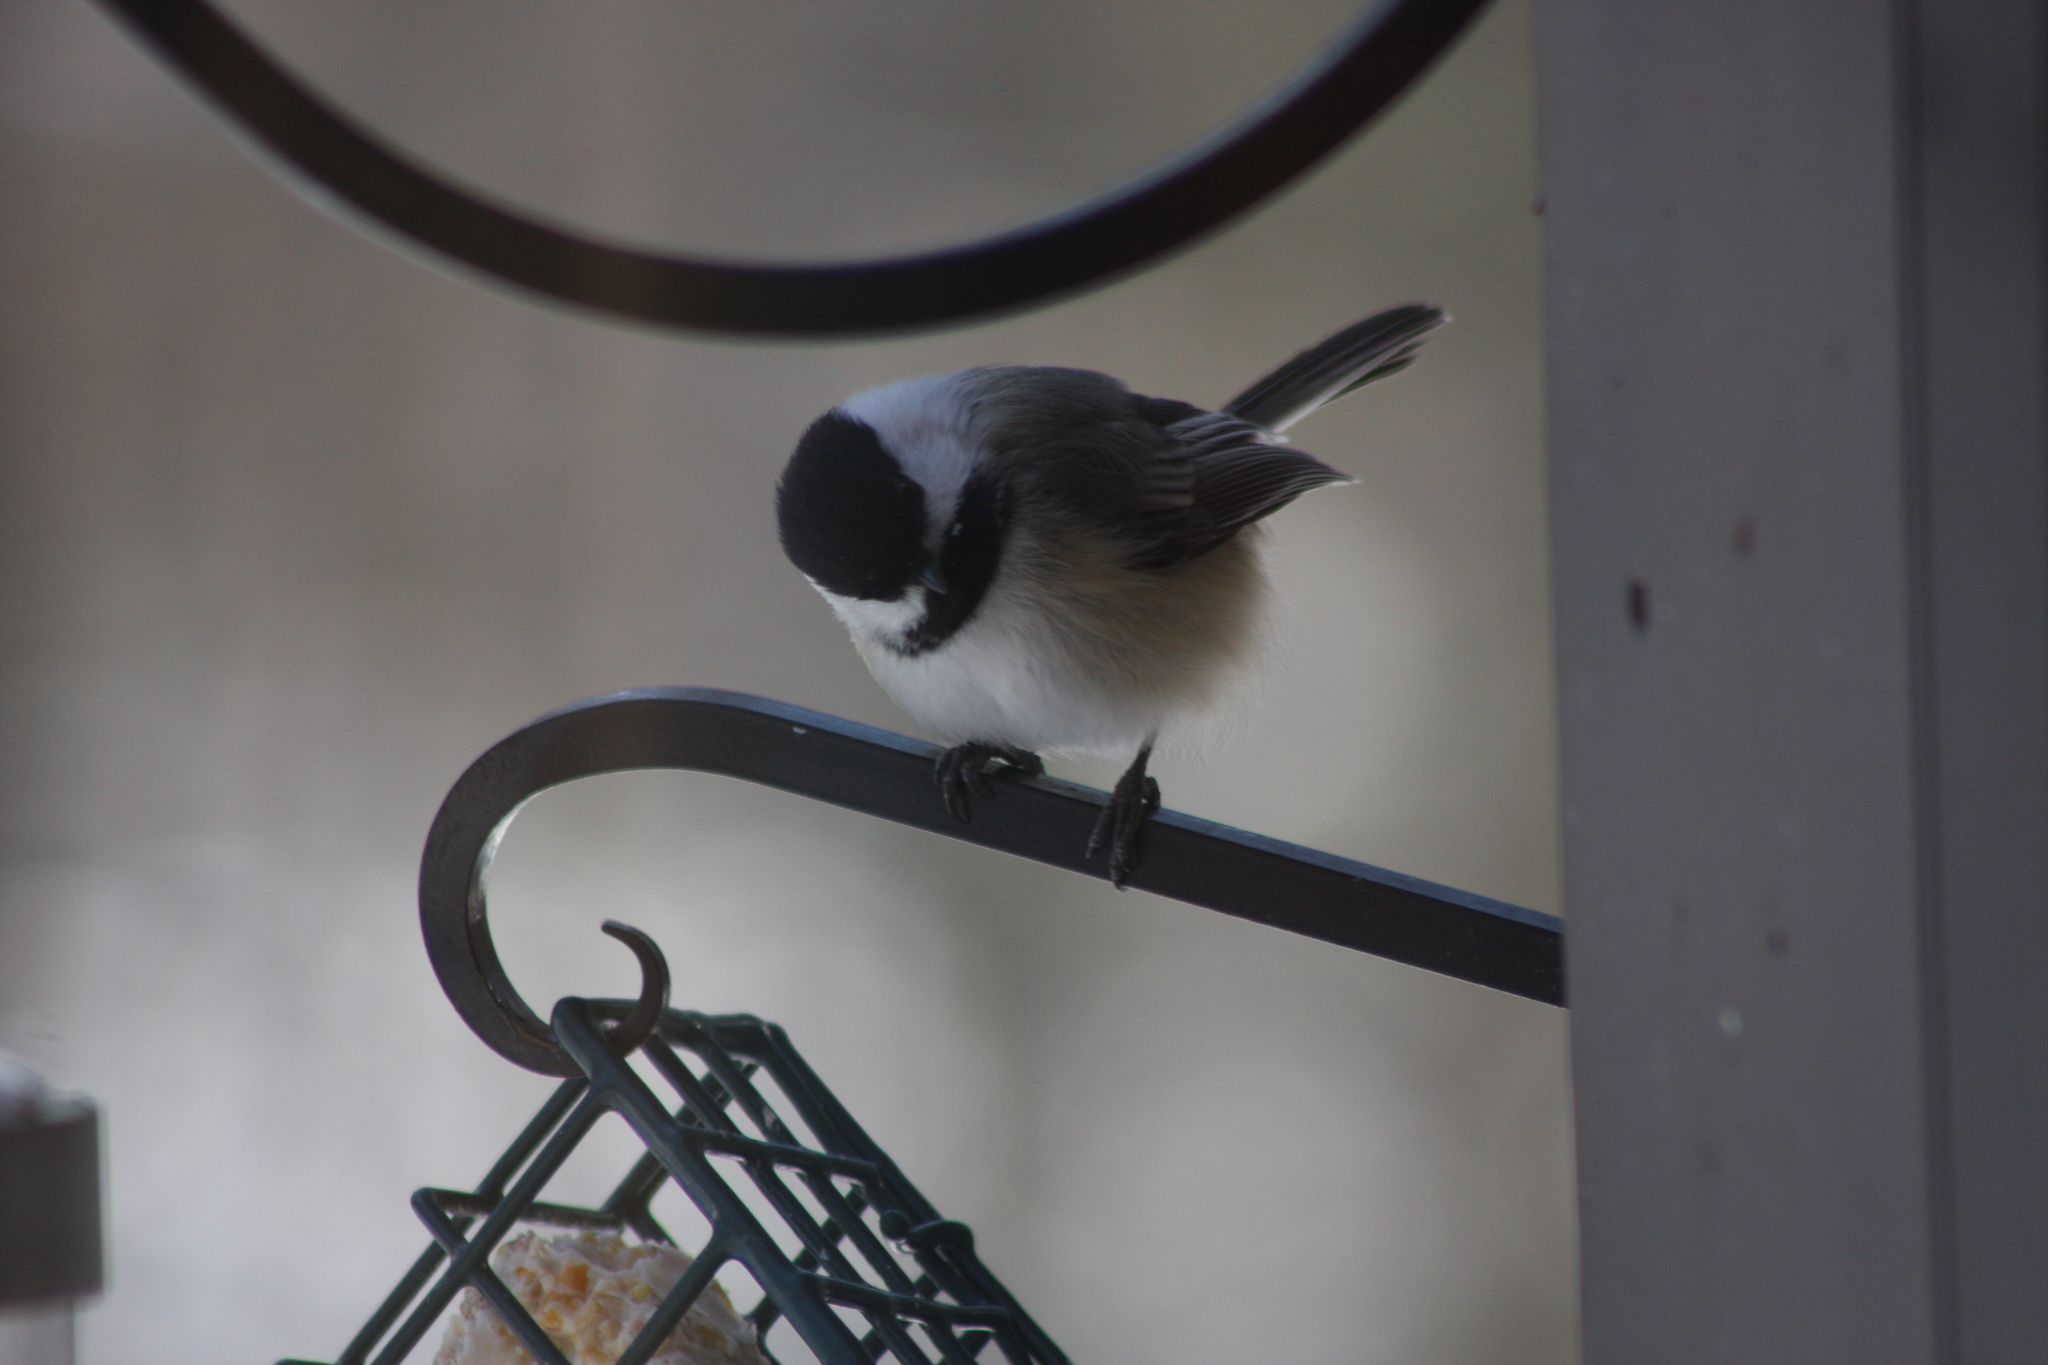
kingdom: Animalia
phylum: Chordata
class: Aves
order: Passeriformes
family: Paridae
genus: Poecile
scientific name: Poecile atricapillus
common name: Black-capped chickadee
